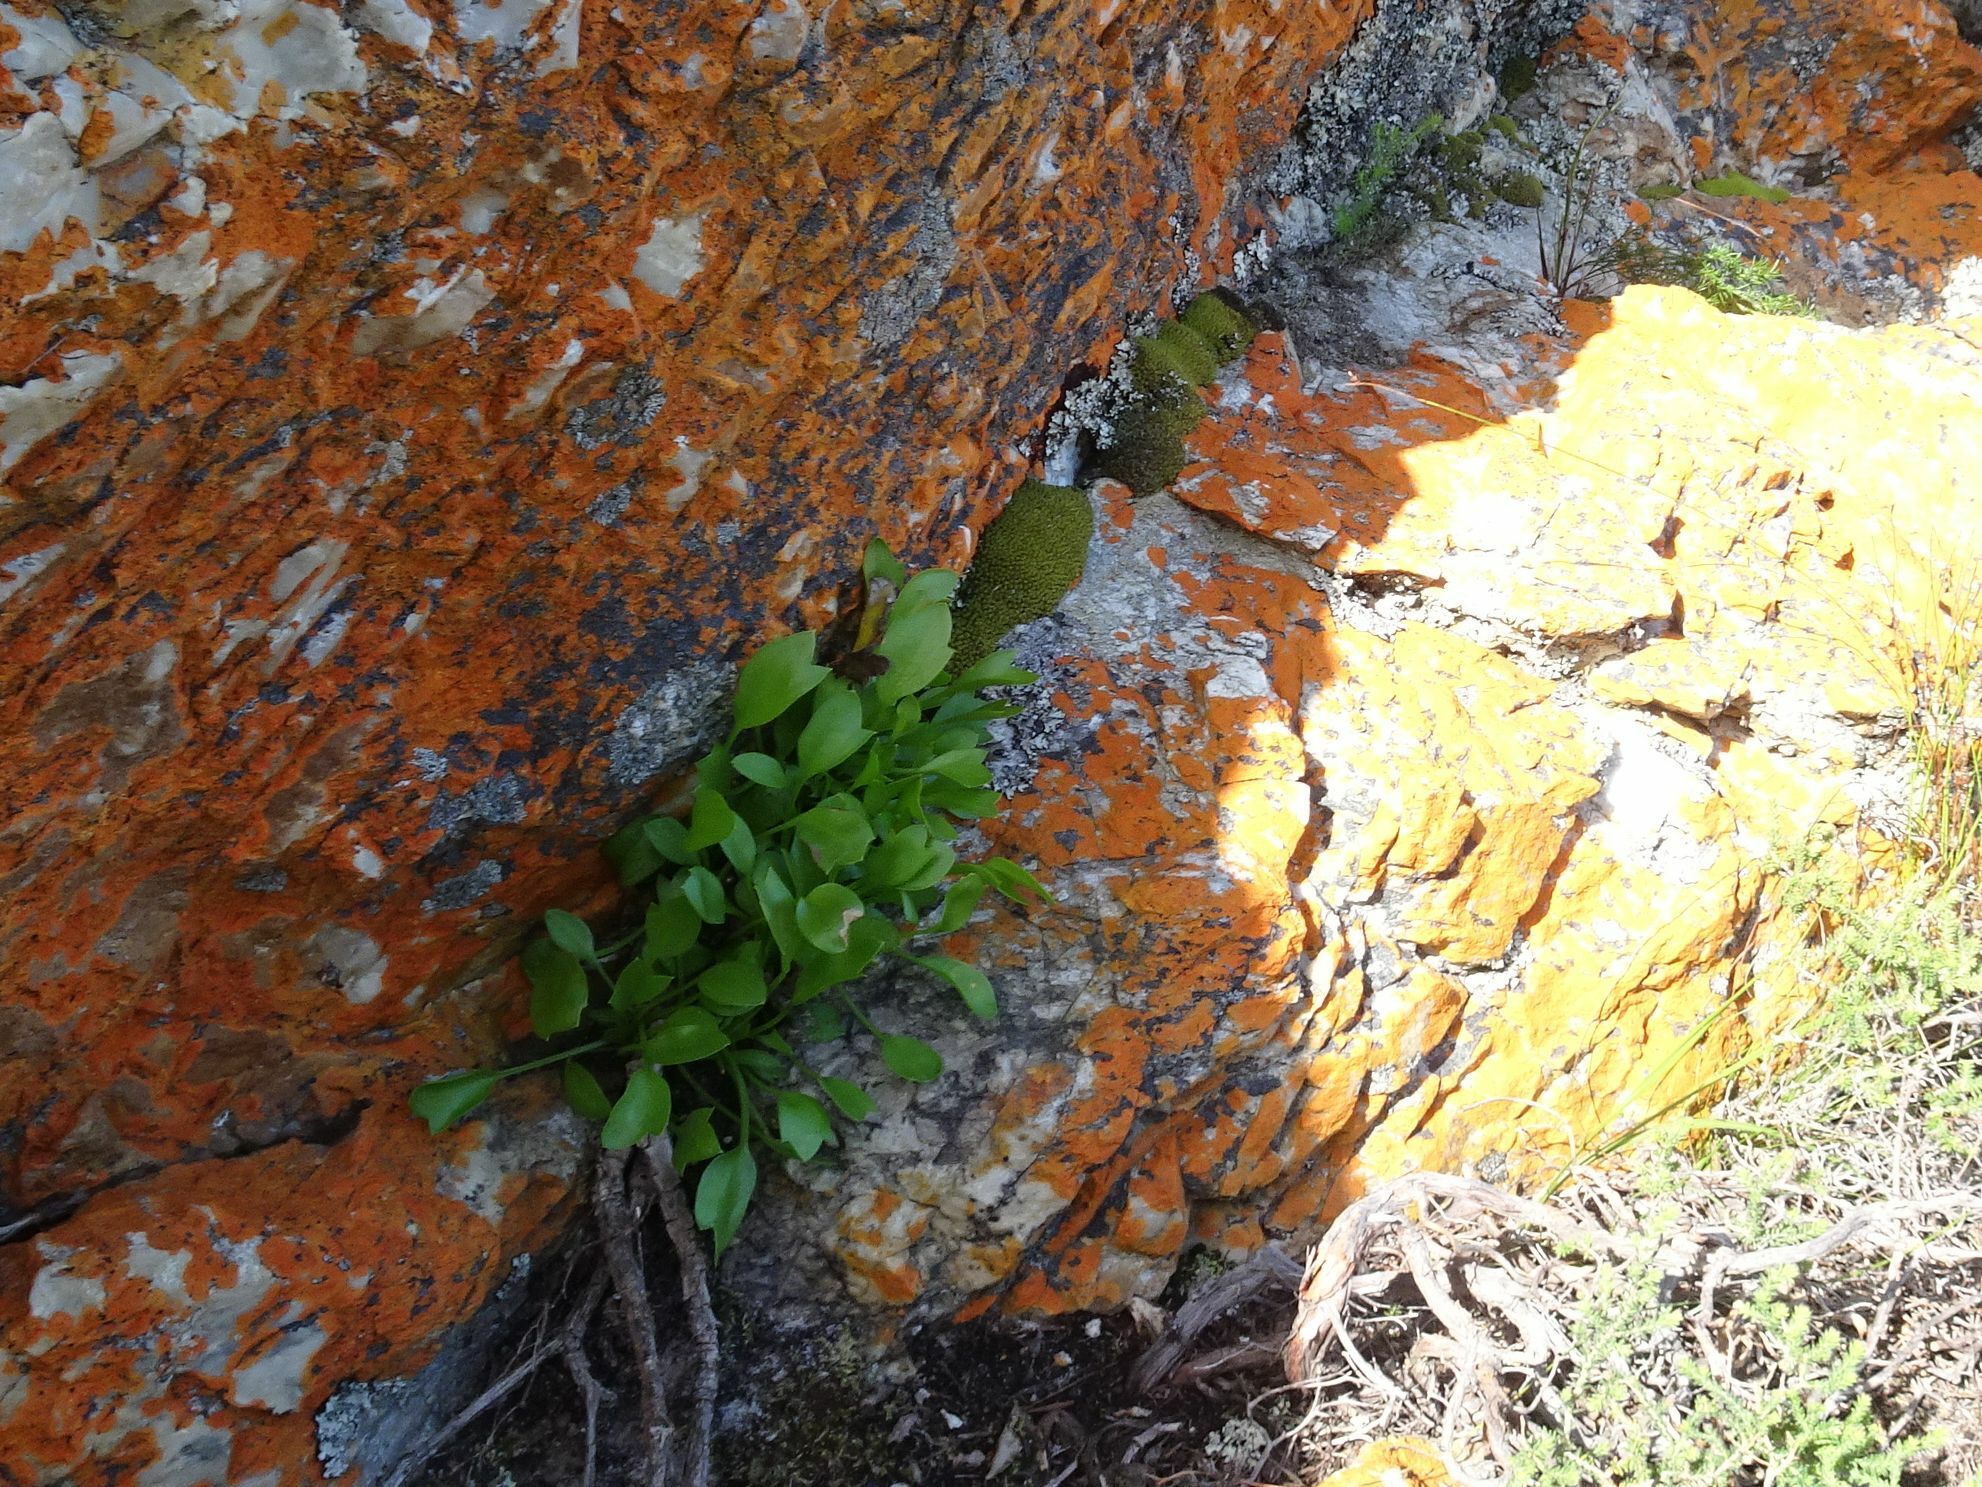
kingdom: Plantae
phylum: Tracheophyta
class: Magnoliopsida
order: Apiales
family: Apiaceae
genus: Centella
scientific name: Centella triloba
